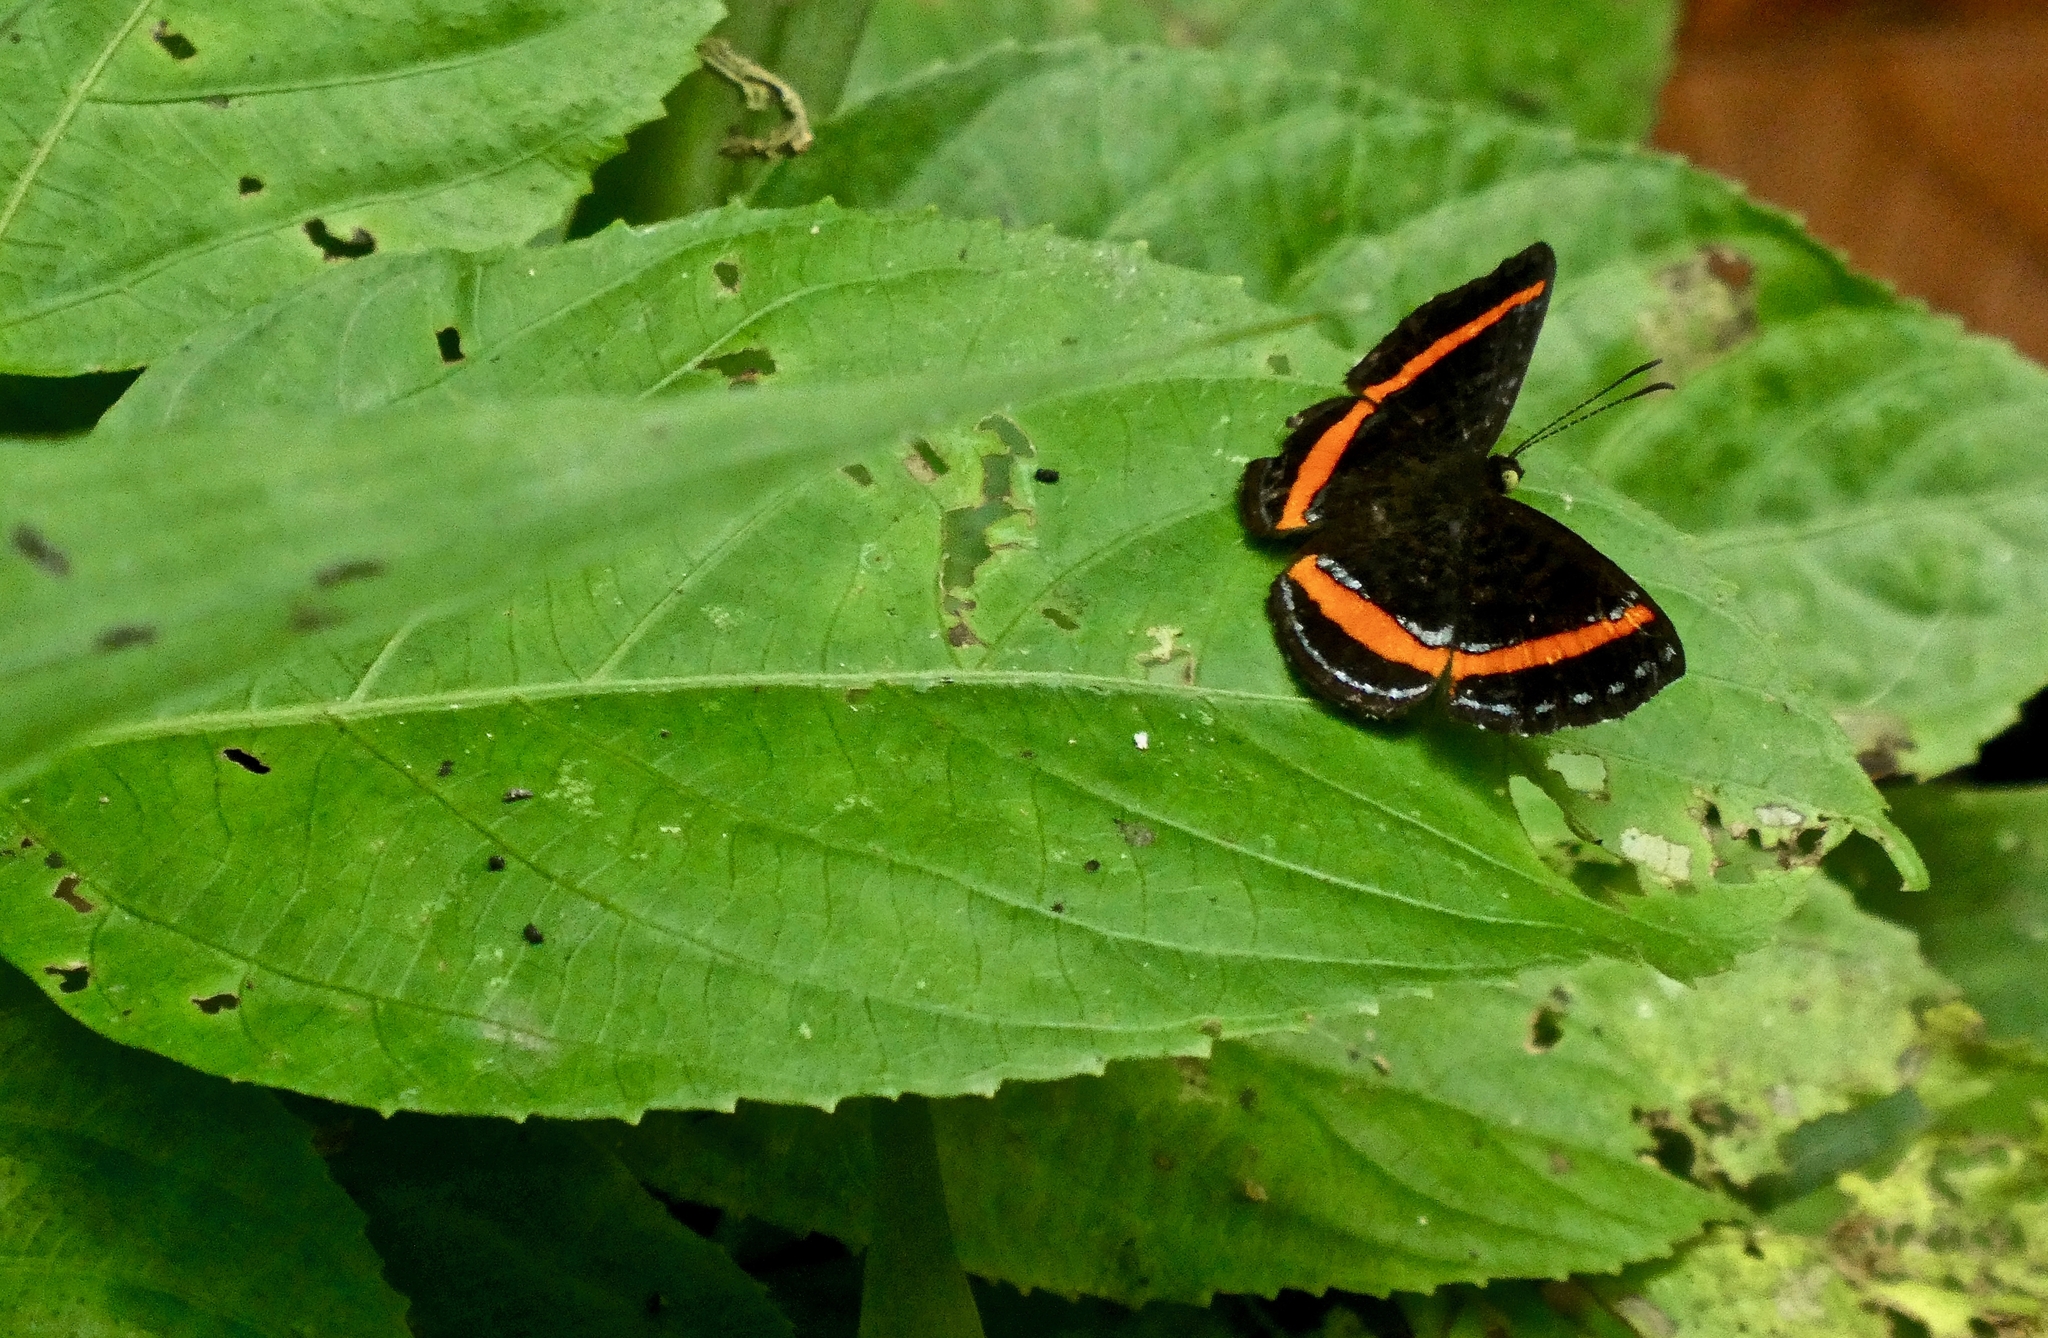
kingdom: Animalia
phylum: Arthropoda
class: Insecta
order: Lepidoptera
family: Riodinidae
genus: Crocozona
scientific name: Crocozona coecias
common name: Orange-banded gem
